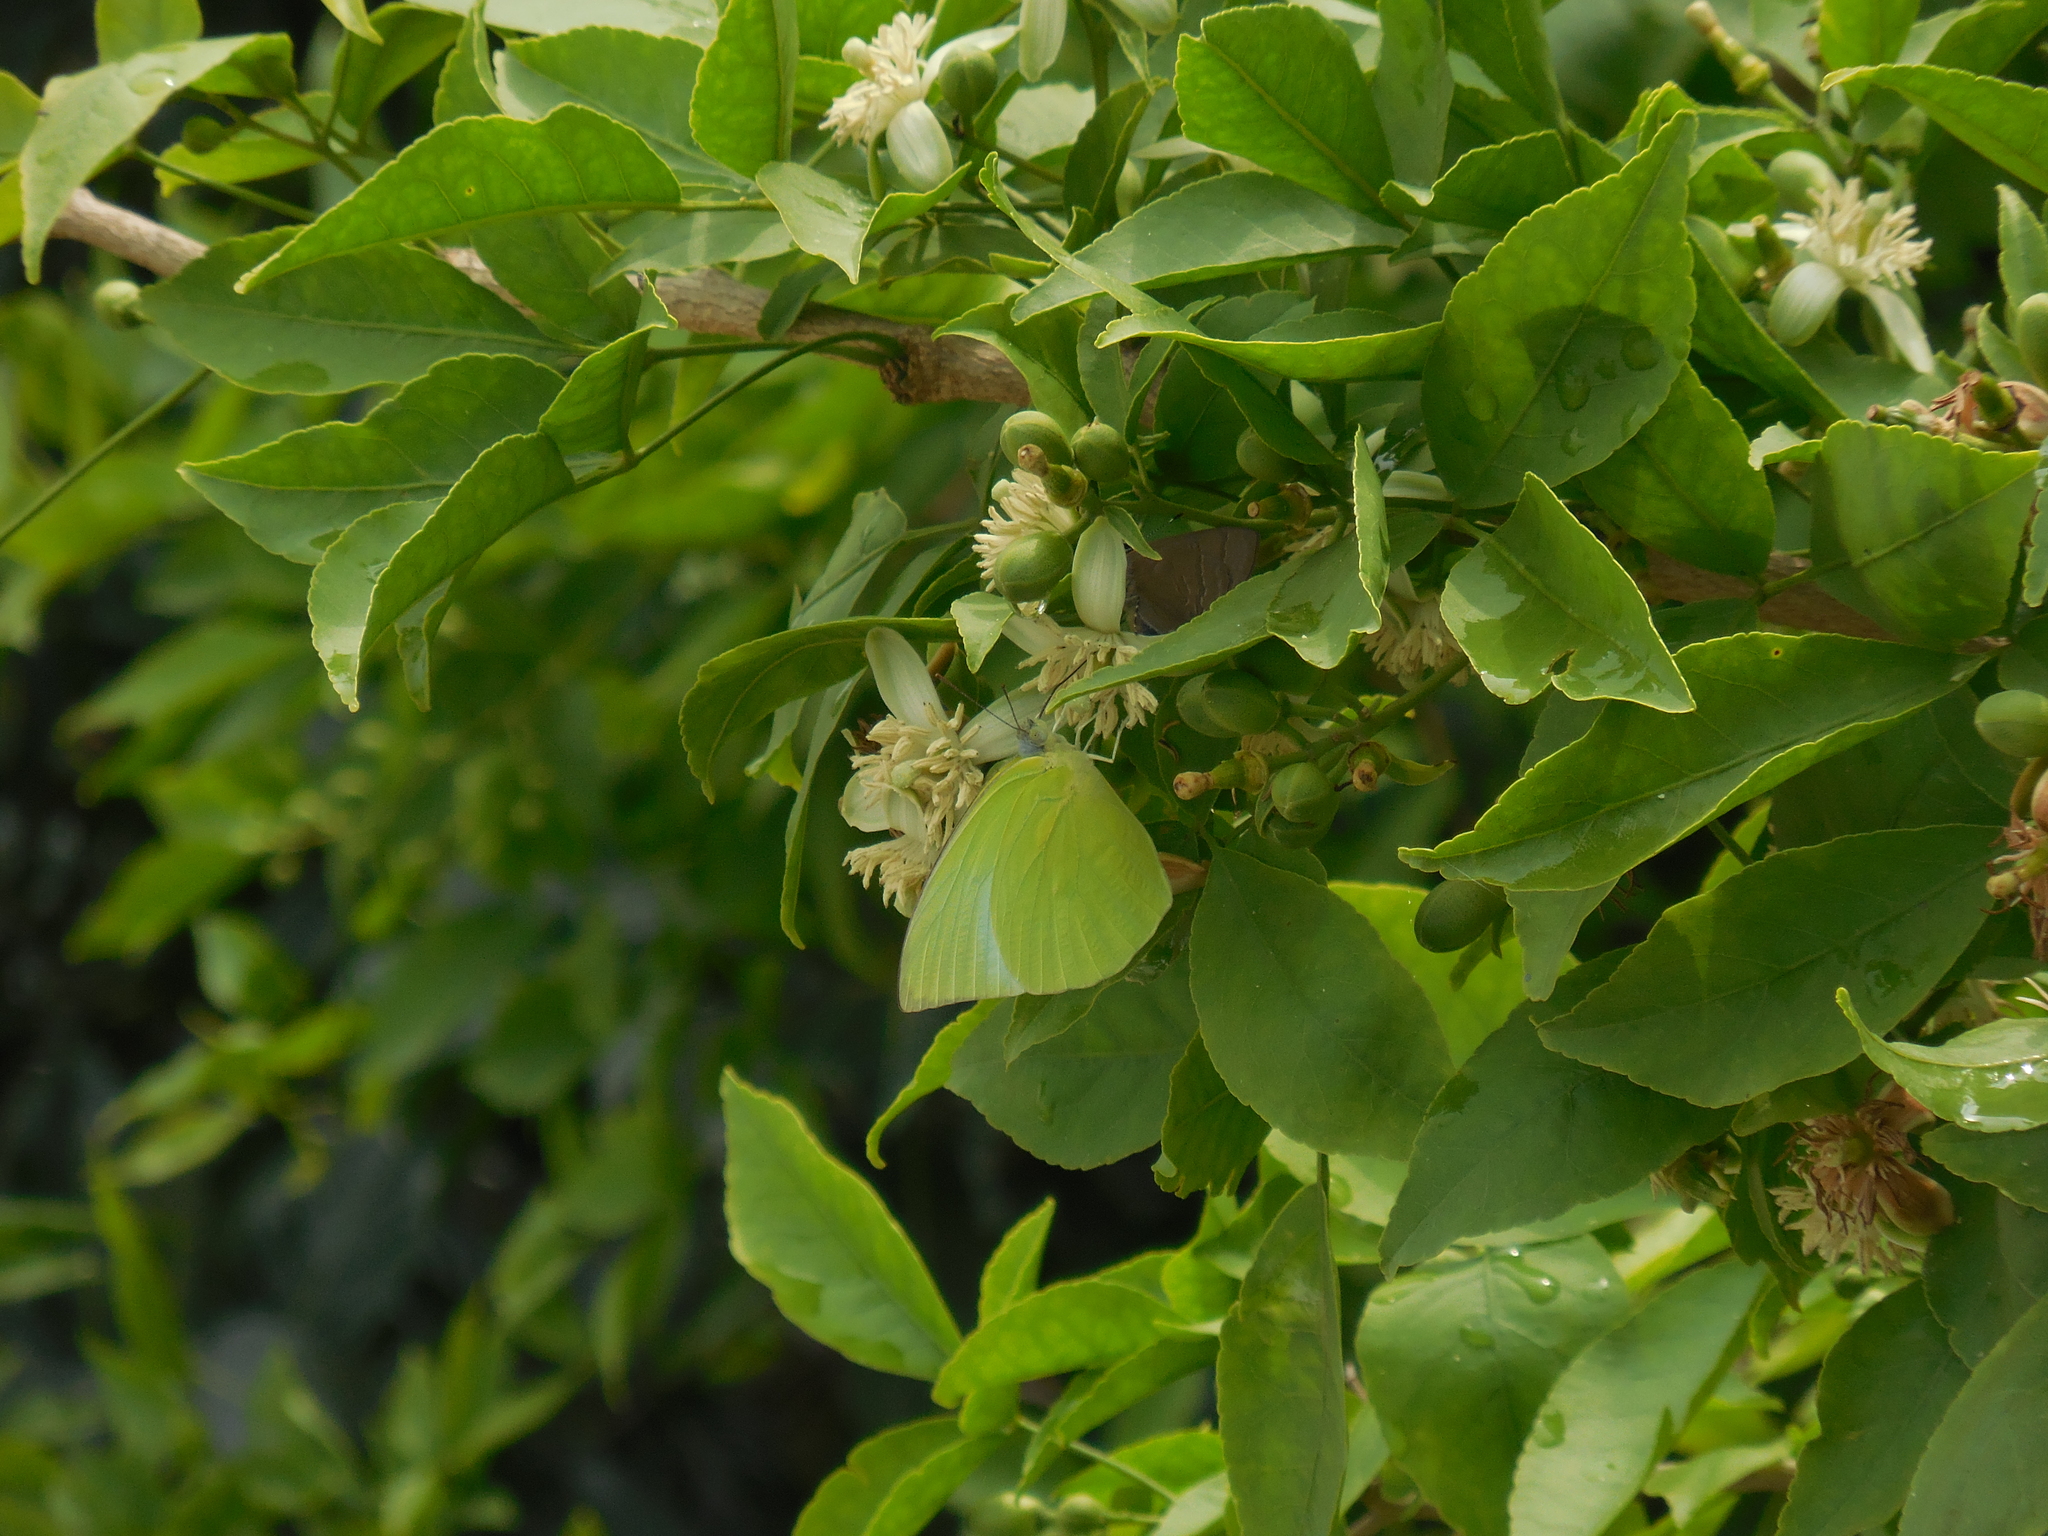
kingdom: Animalia
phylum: Arthropoda
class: Insecta
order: Lepidoptera
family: Pieridae
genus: Catopsilia
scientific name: Catopsilia pomona
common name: Common emigrant
